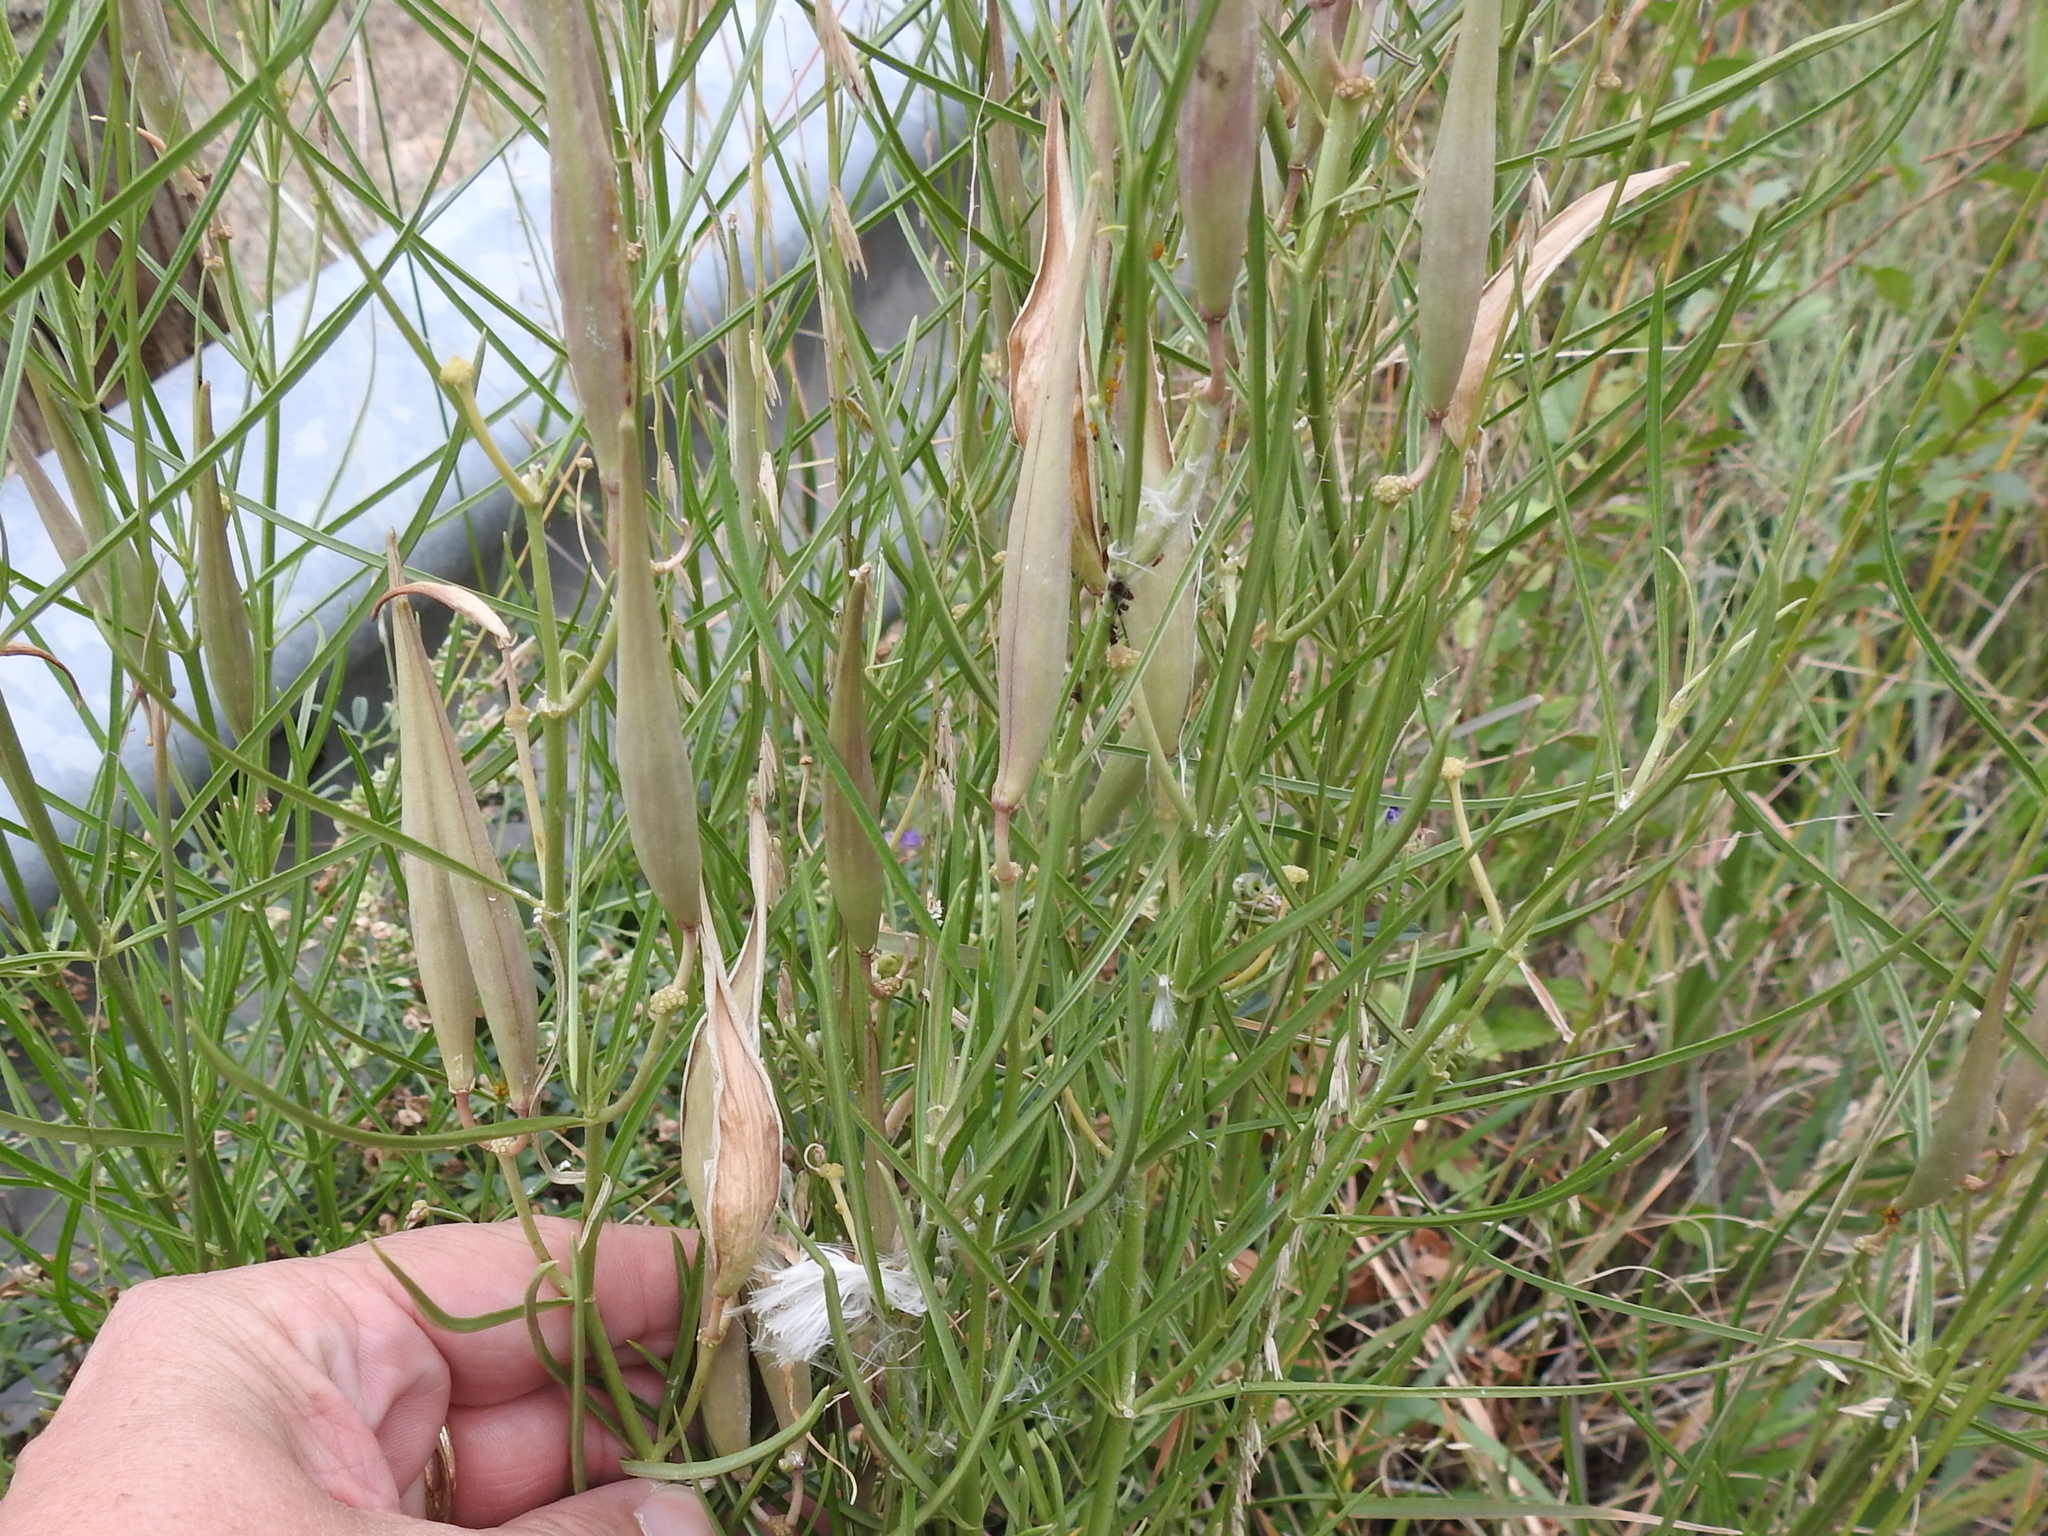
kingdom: Plantae
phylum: Tracheophyta
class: Magnoliopsida
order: Gentianales
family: Apocynaceae
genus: Asclepias
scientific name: Asclepias subverticillata
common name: Horsetail milkweed
